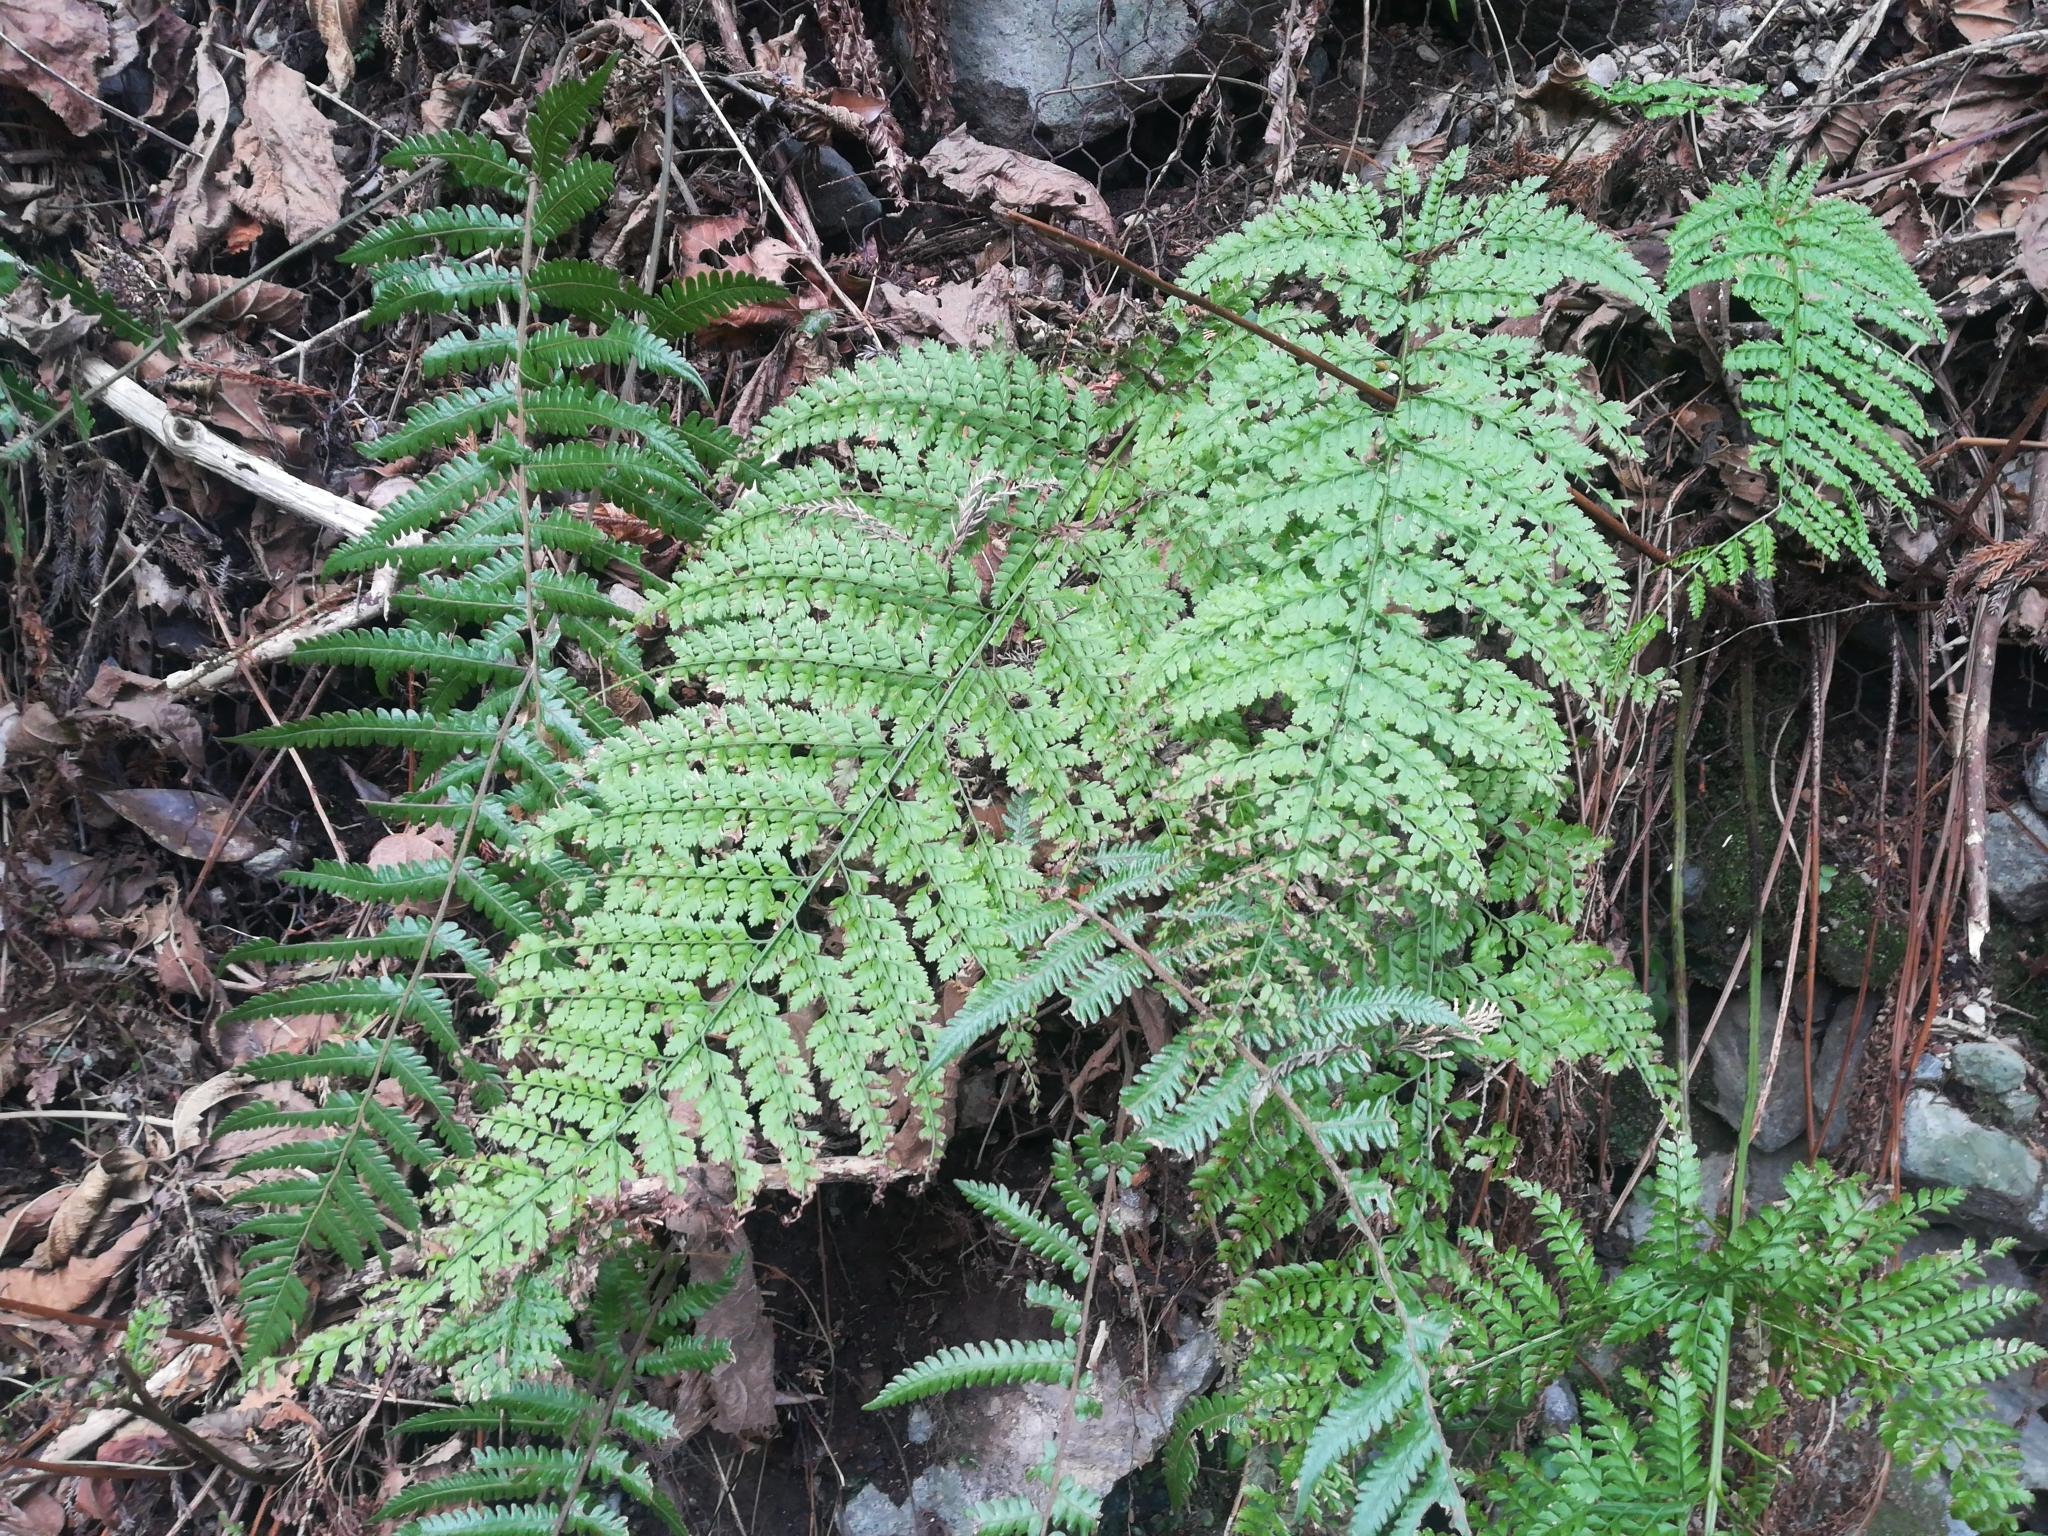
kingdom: Plantae
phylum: Tracheophyta
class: Polypodiopsida
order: Polypodiales
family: Dryopteridaceae
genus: Arachniodes
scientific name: Arachniodes standishii
